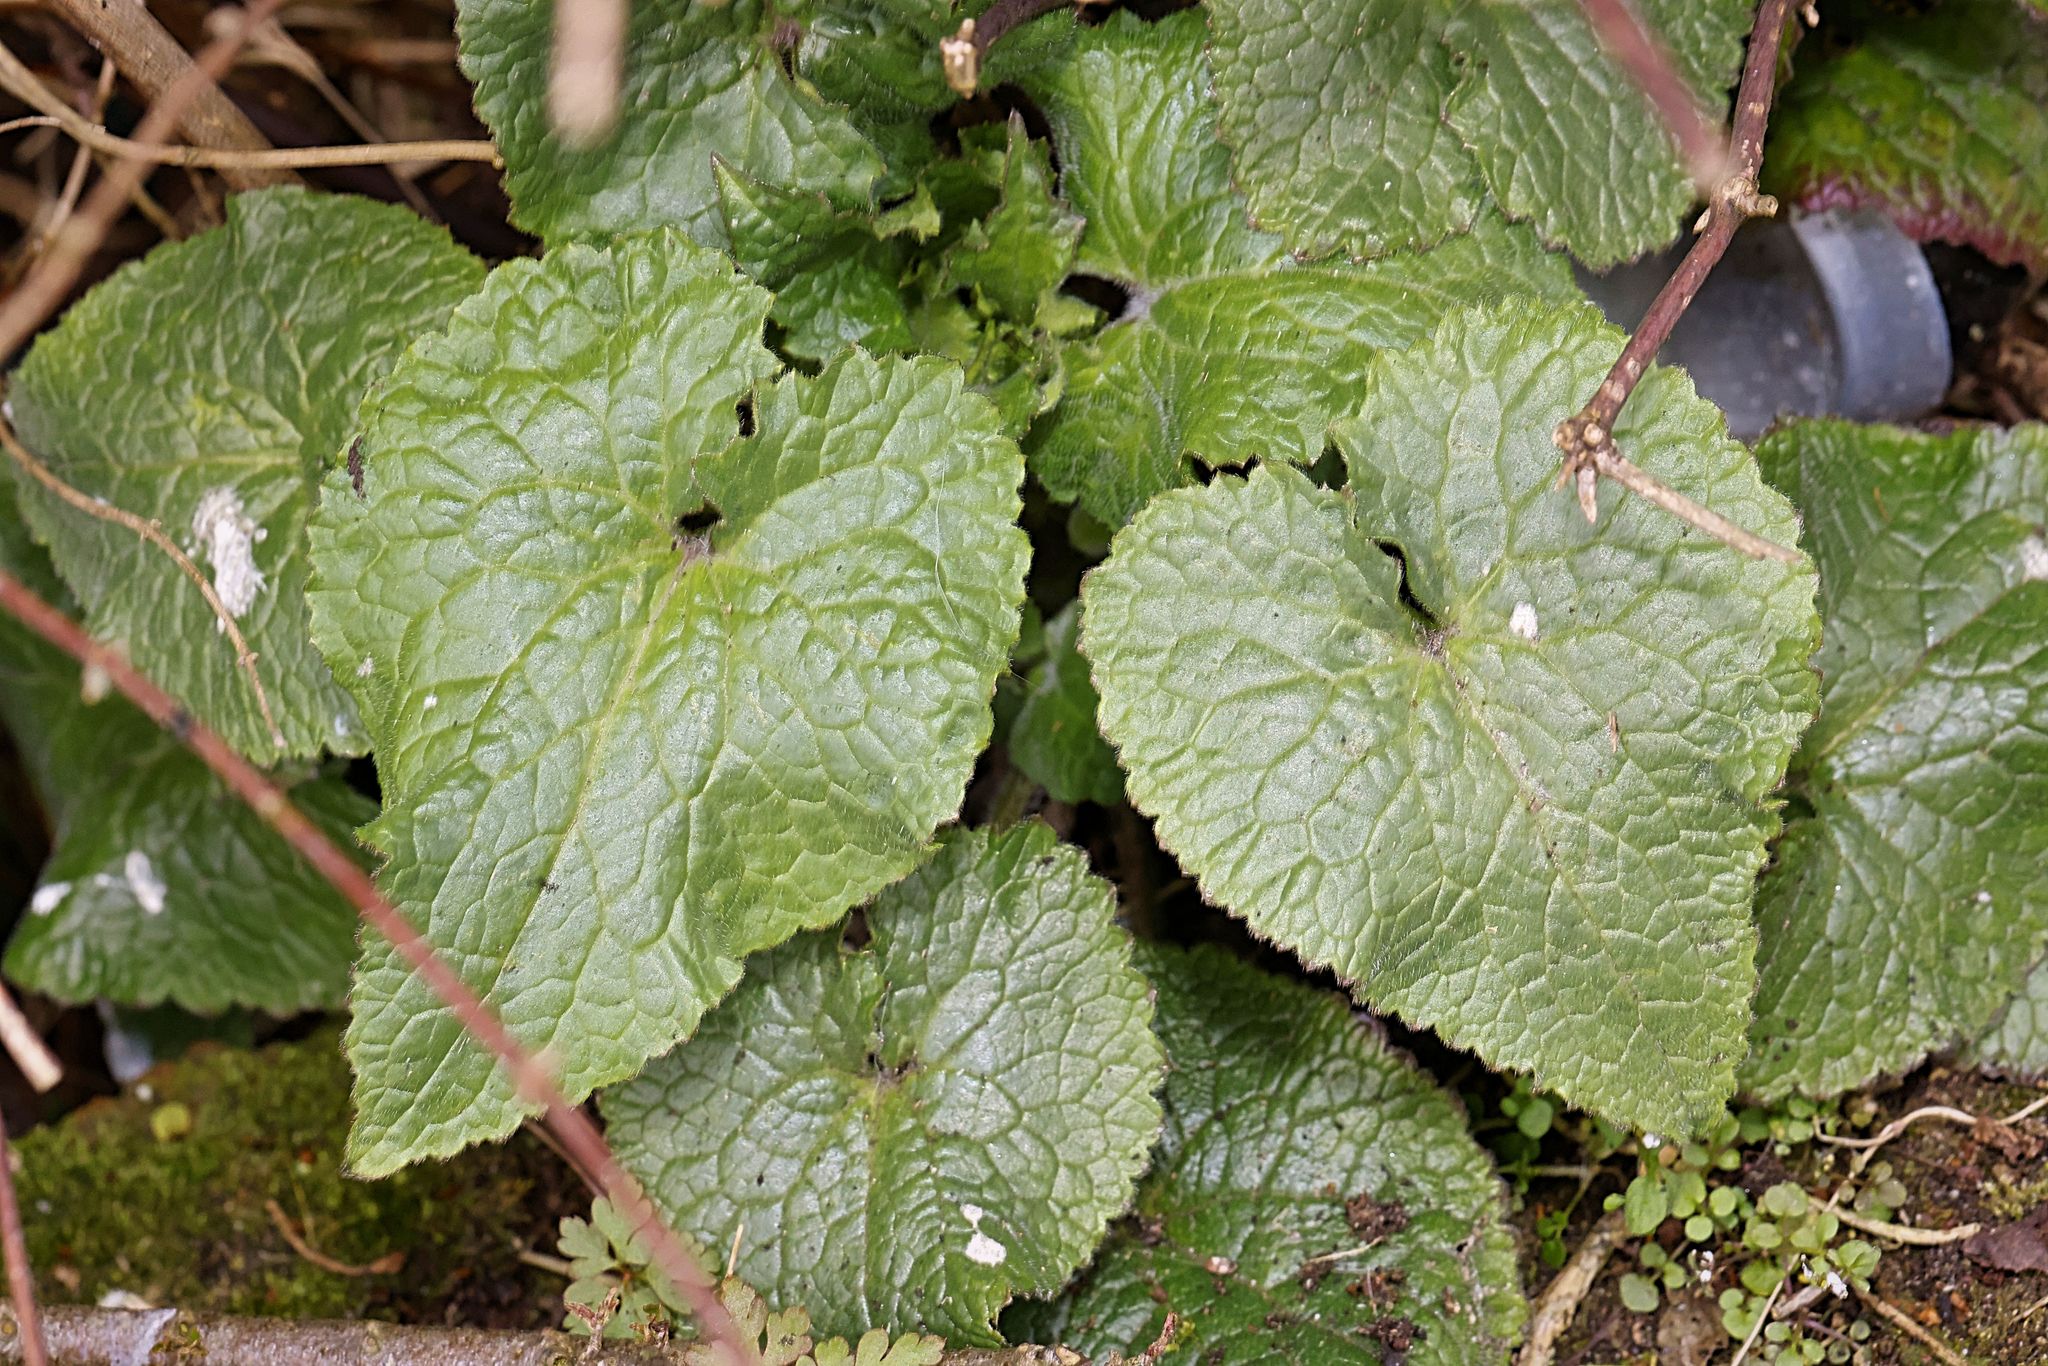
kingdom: Plantae
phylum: Tracheophyta
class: Magnoliopsida
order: Brassicales
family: Brassicaceae
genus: Lunaria
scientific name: Lunaria annua
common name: Honesty
